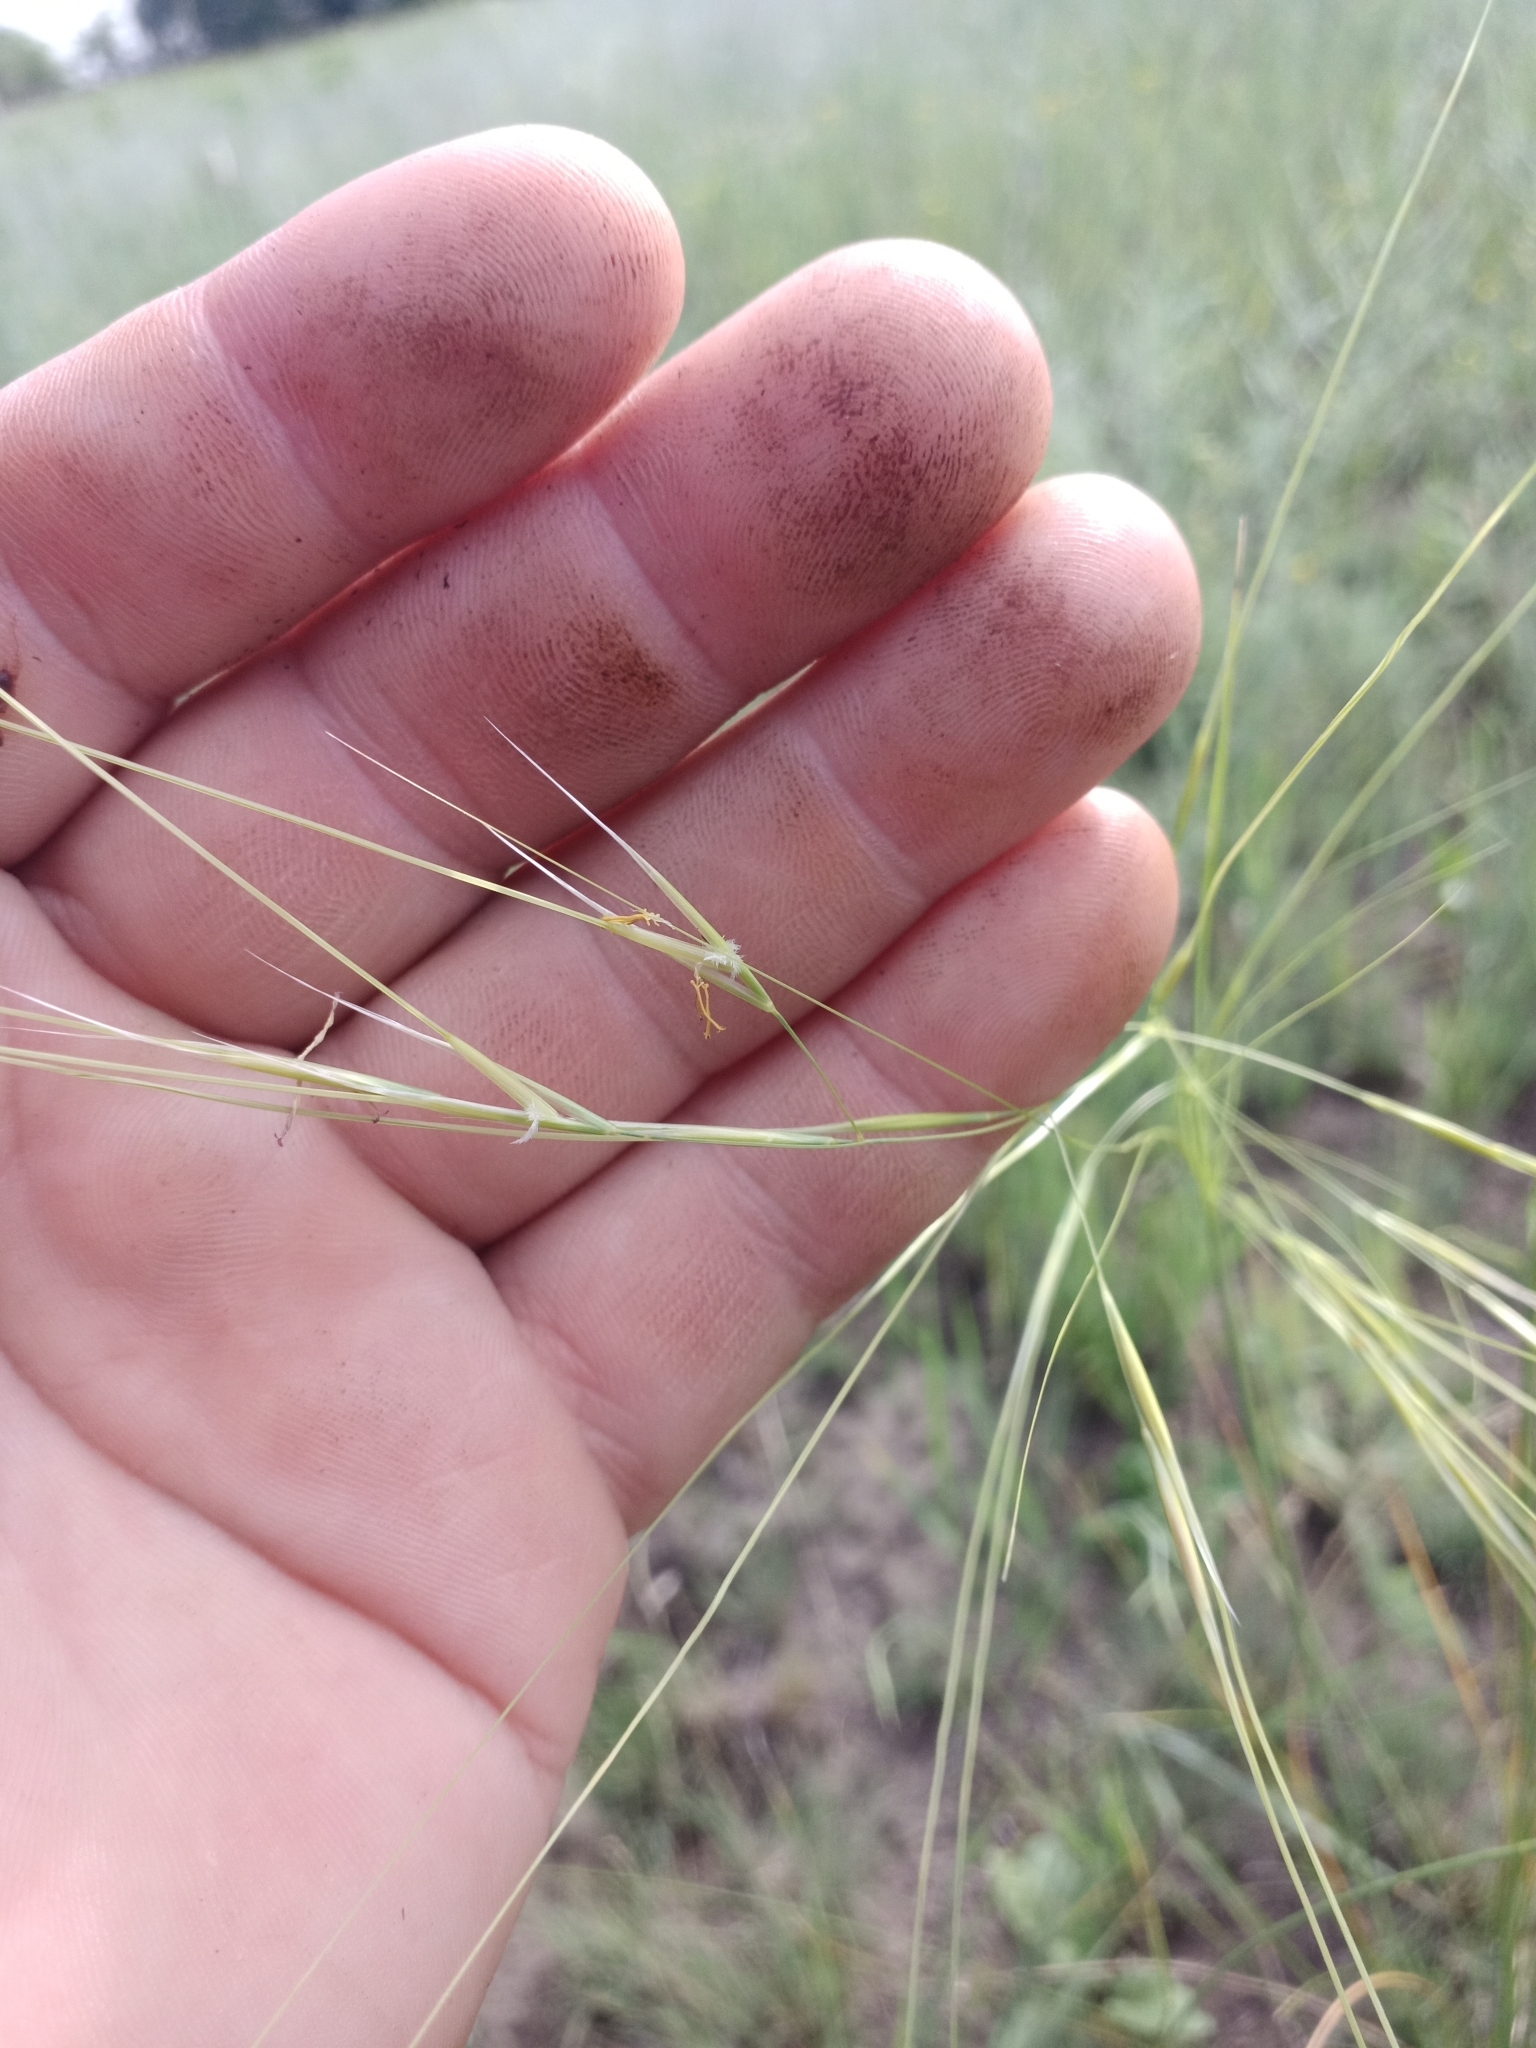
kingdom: Plantae
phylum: Tracheophyta
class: Liliopsida
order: Poales
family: Poaceae
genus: Stipa
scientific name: Stipa capillata
